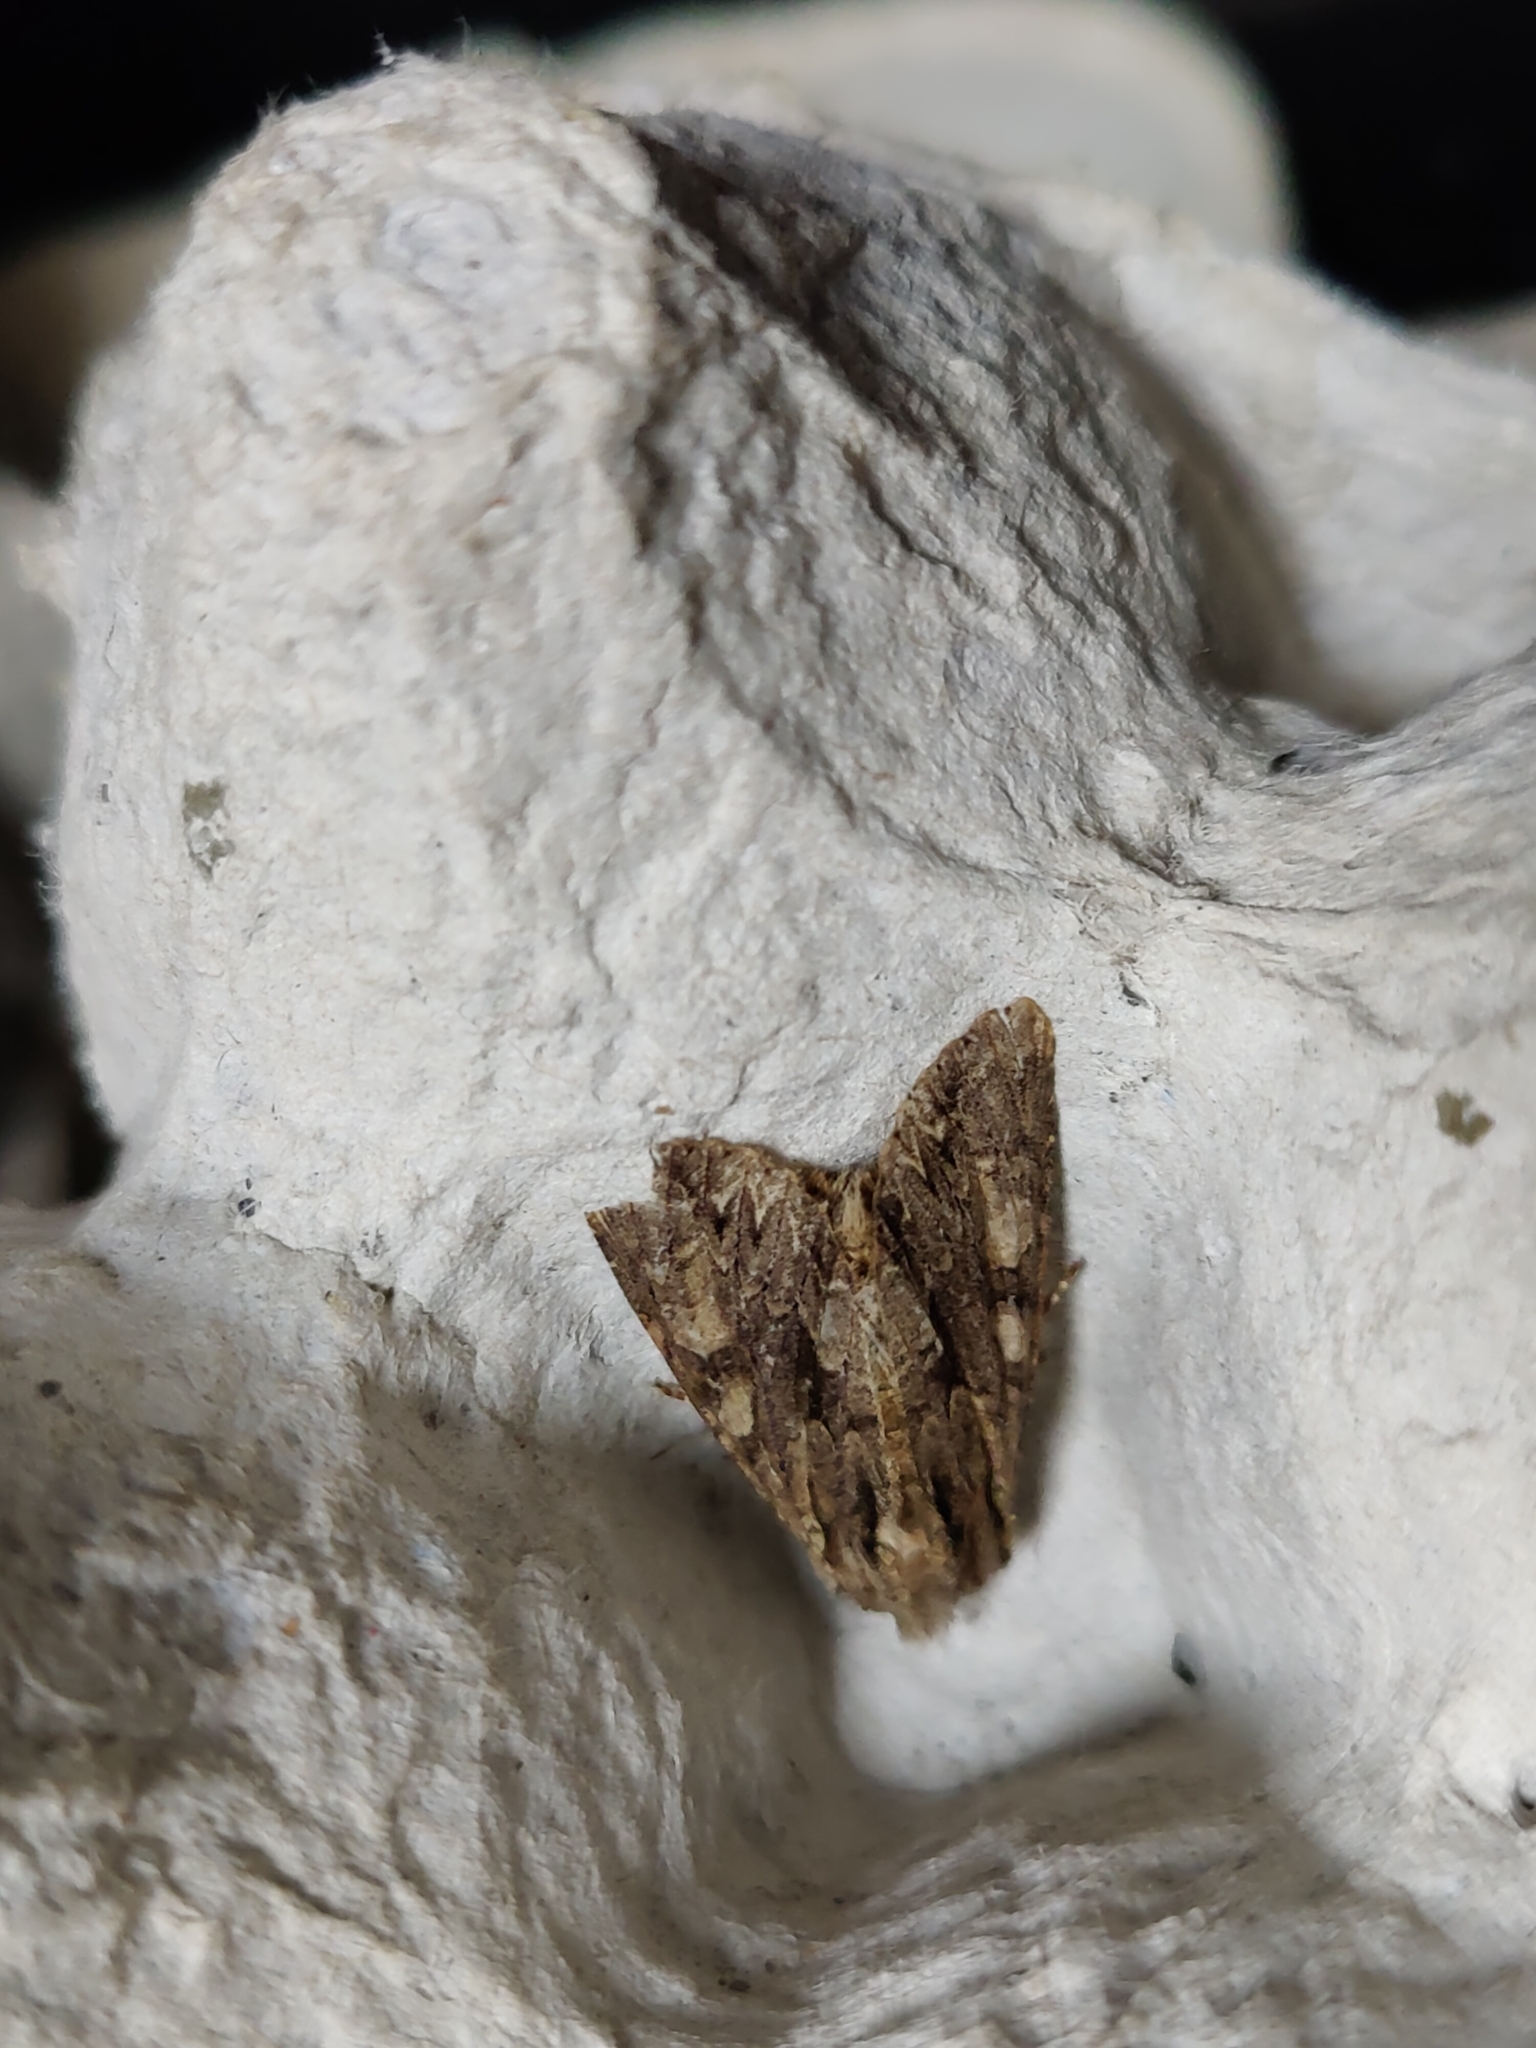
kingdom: Animalia
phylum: Arthropoda
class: Insecta
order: Lepidoptera
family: Noctuidae
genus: Apamea
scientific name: Apamea monoglypha
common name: Dark arches
